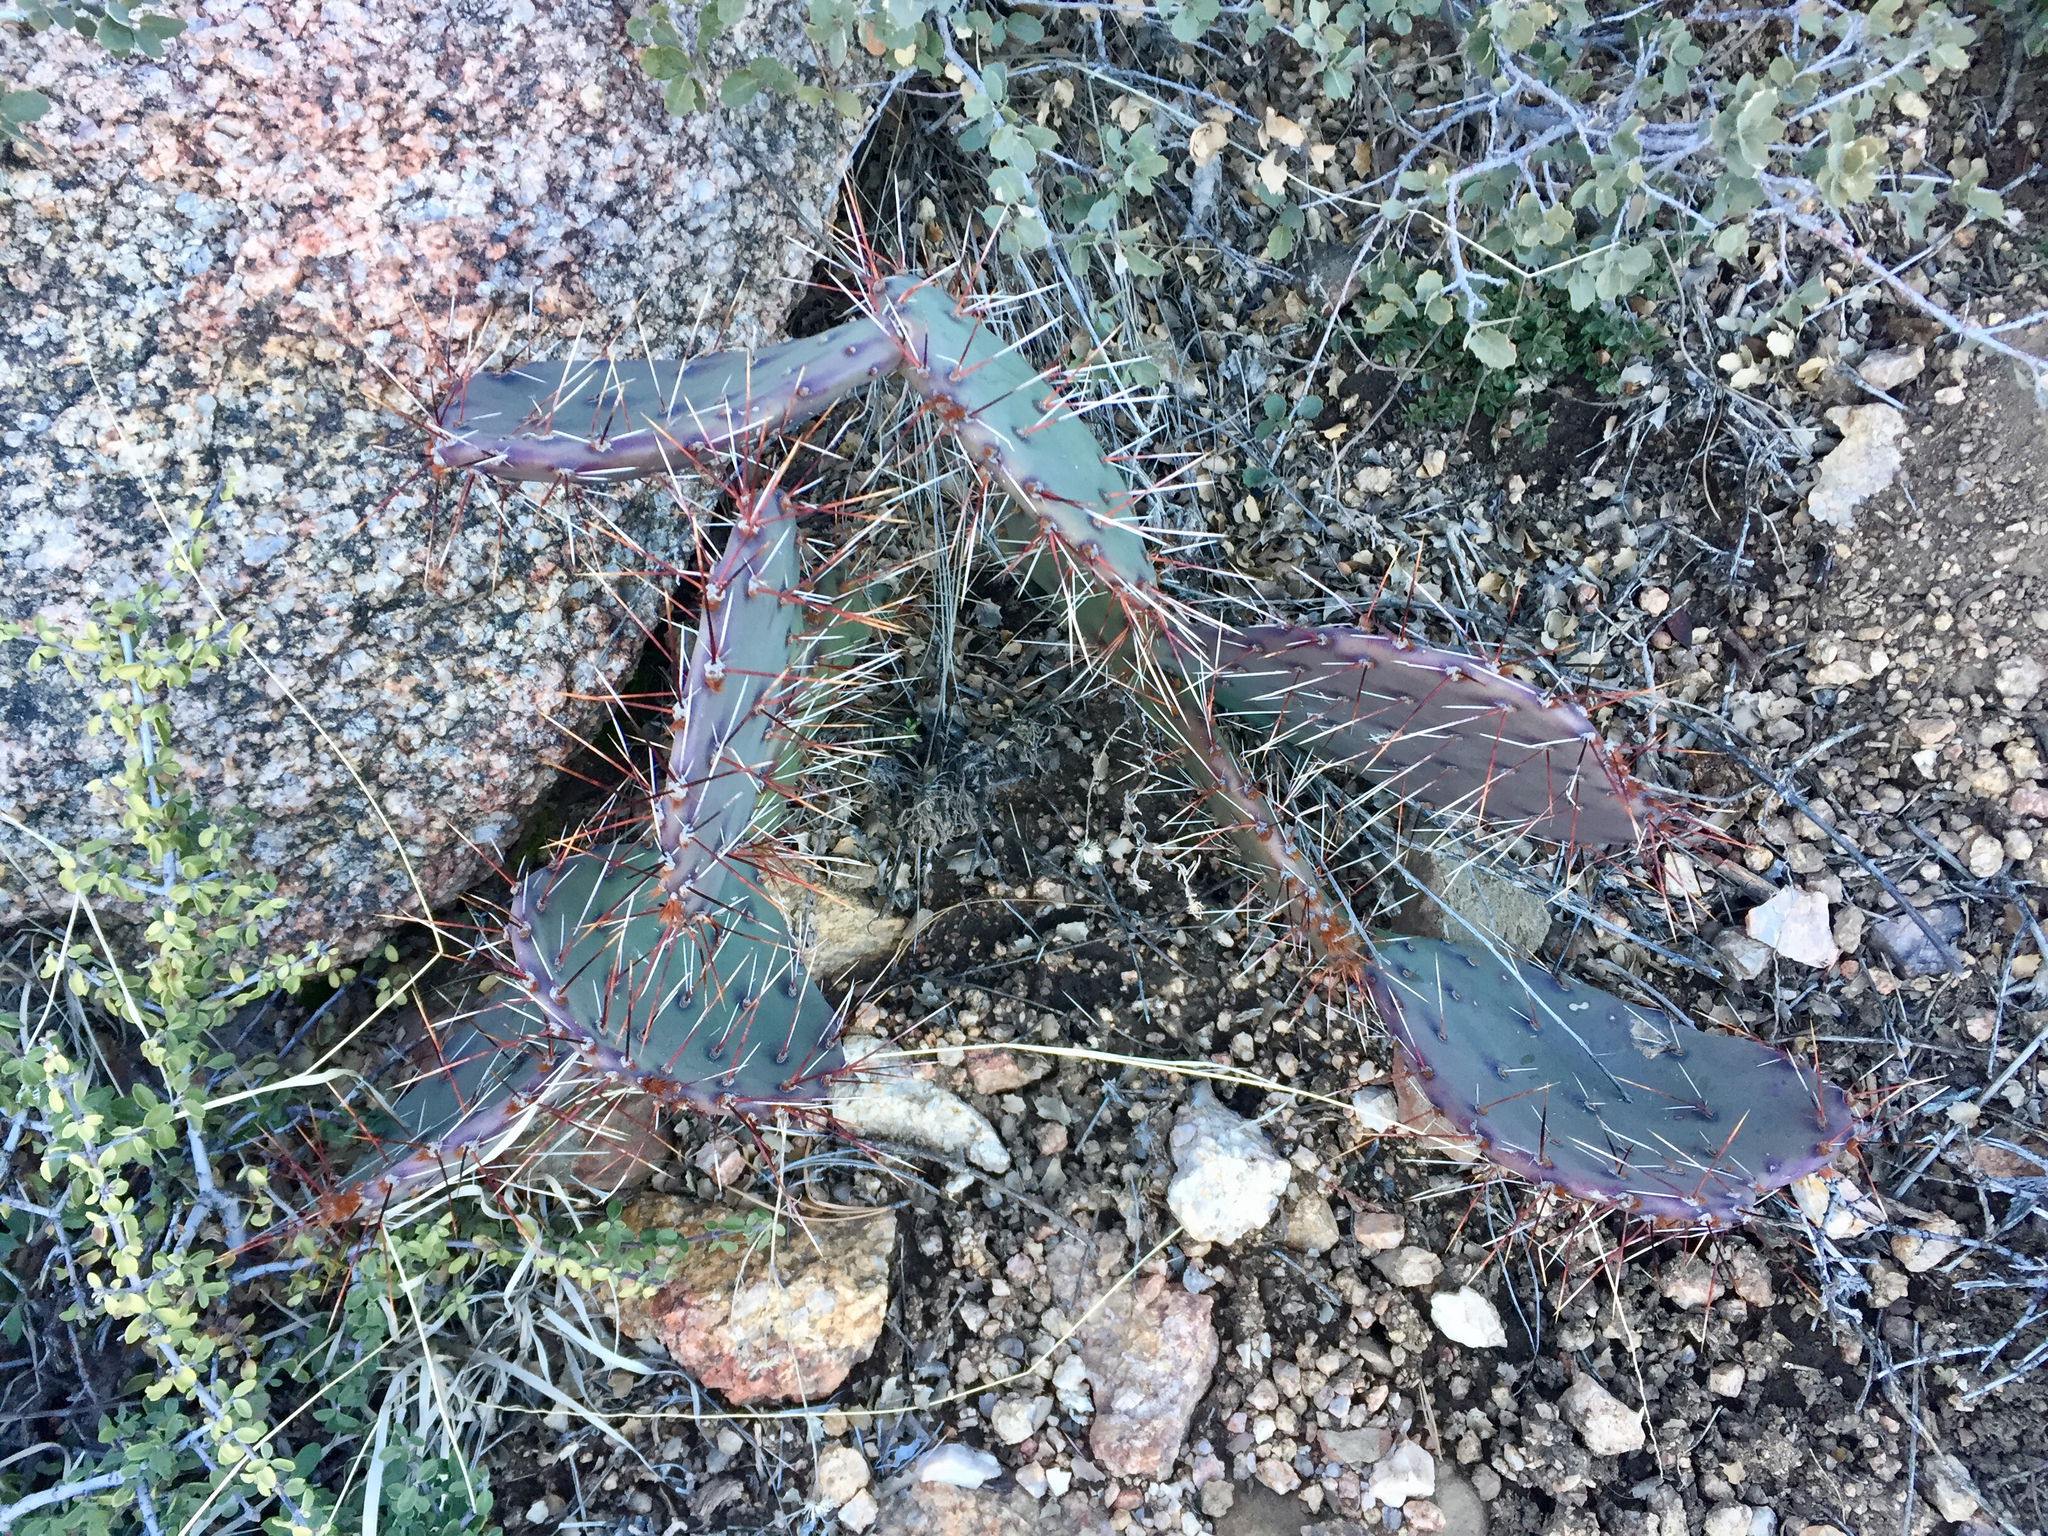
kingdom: Plantae
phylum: Tracheophyta
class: Magnoliopsida
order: Caryophyllales
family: Cactaceae
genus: Opuntia
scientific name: Opuntia phaeacantha
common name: New mexico prickly-pear
